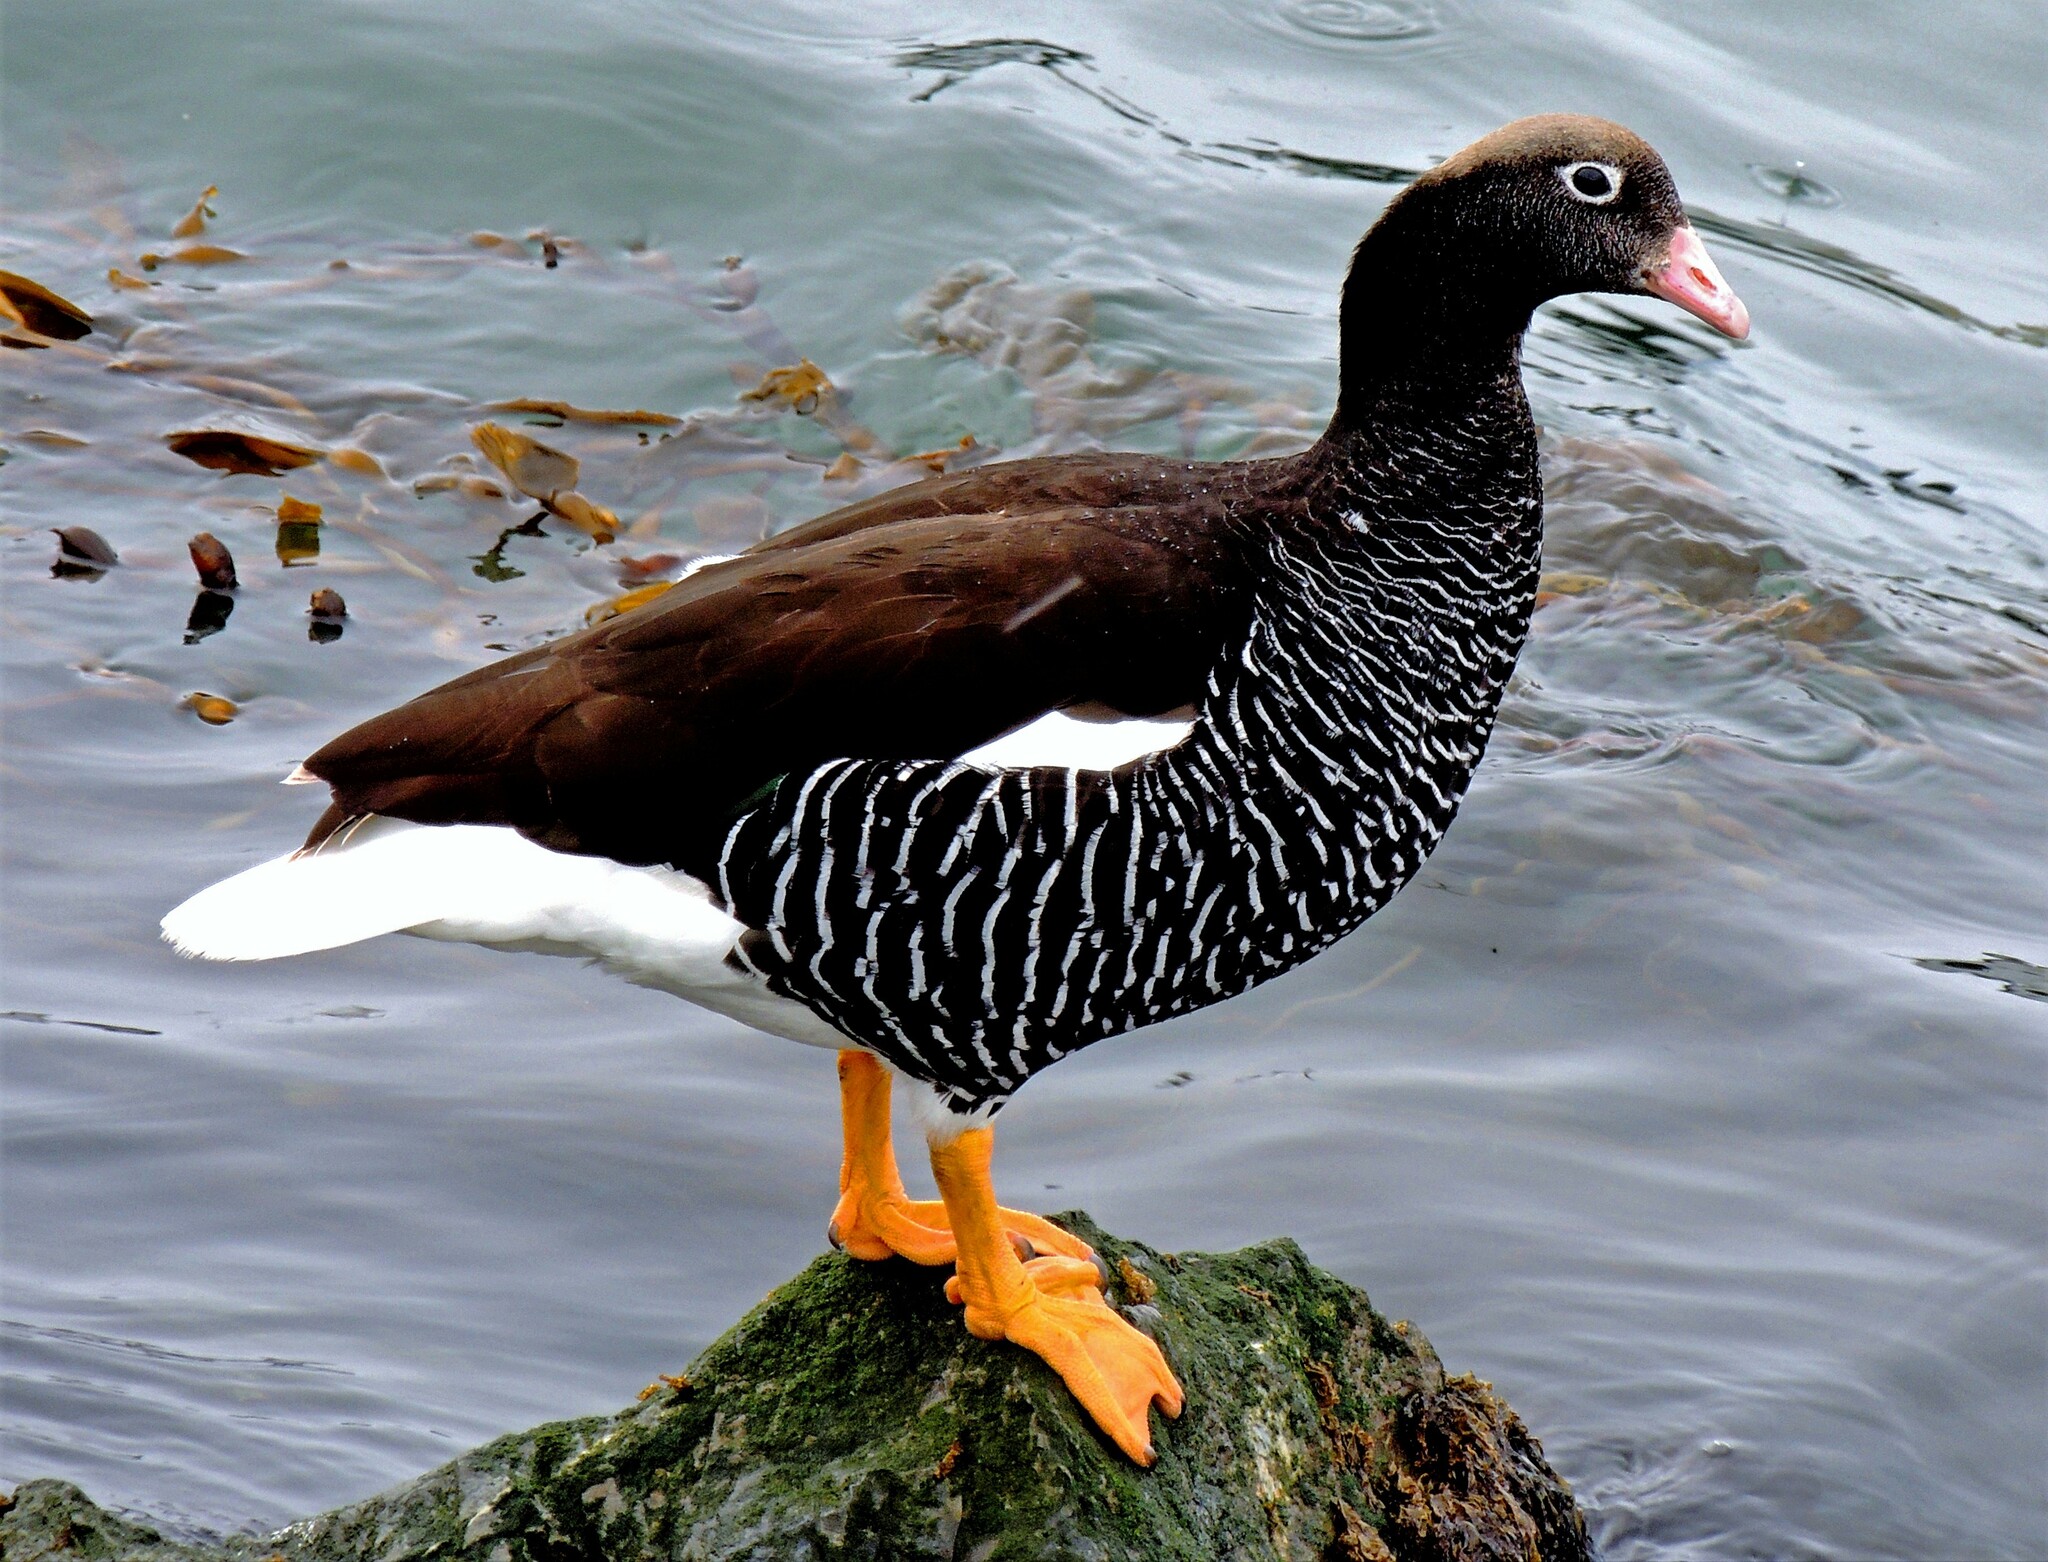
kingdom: Animalia
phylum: Chordata
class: Aves
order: Anseriformes
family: Anatidae
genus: Chloephaga
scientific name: Chloephaga hybrida
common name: Kelp goose
